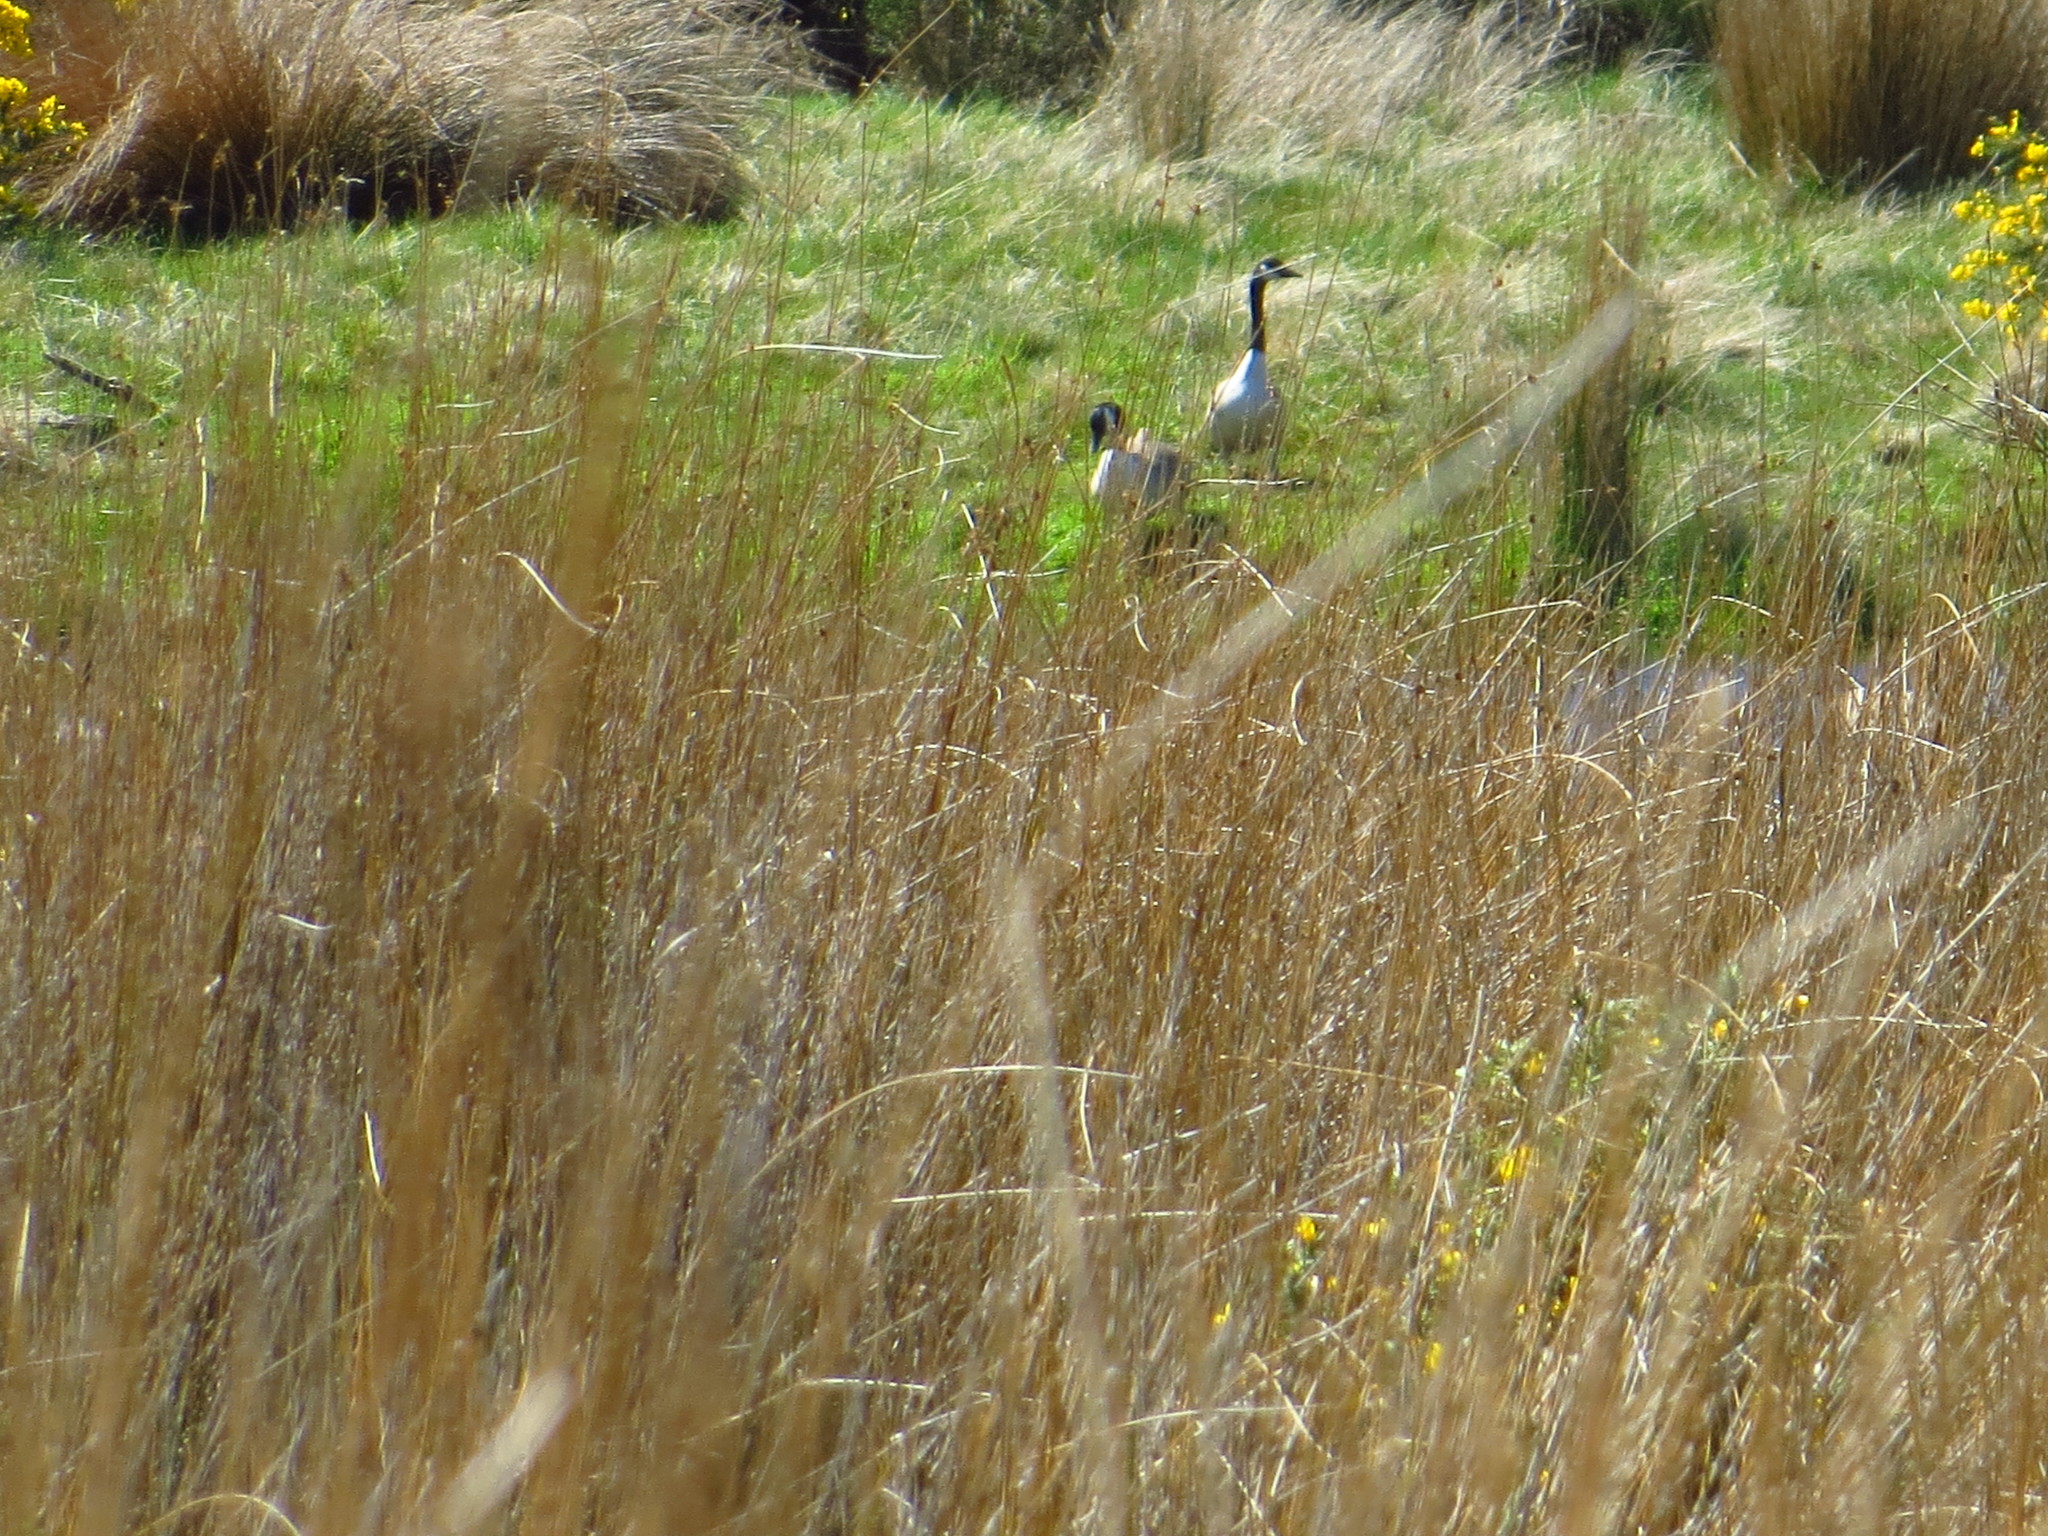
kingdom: Animalia
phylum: Chordata
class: Aves
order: Anseriformes
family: Anatidae
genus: Branta
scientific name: Branta canadensis
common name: Canada goose
